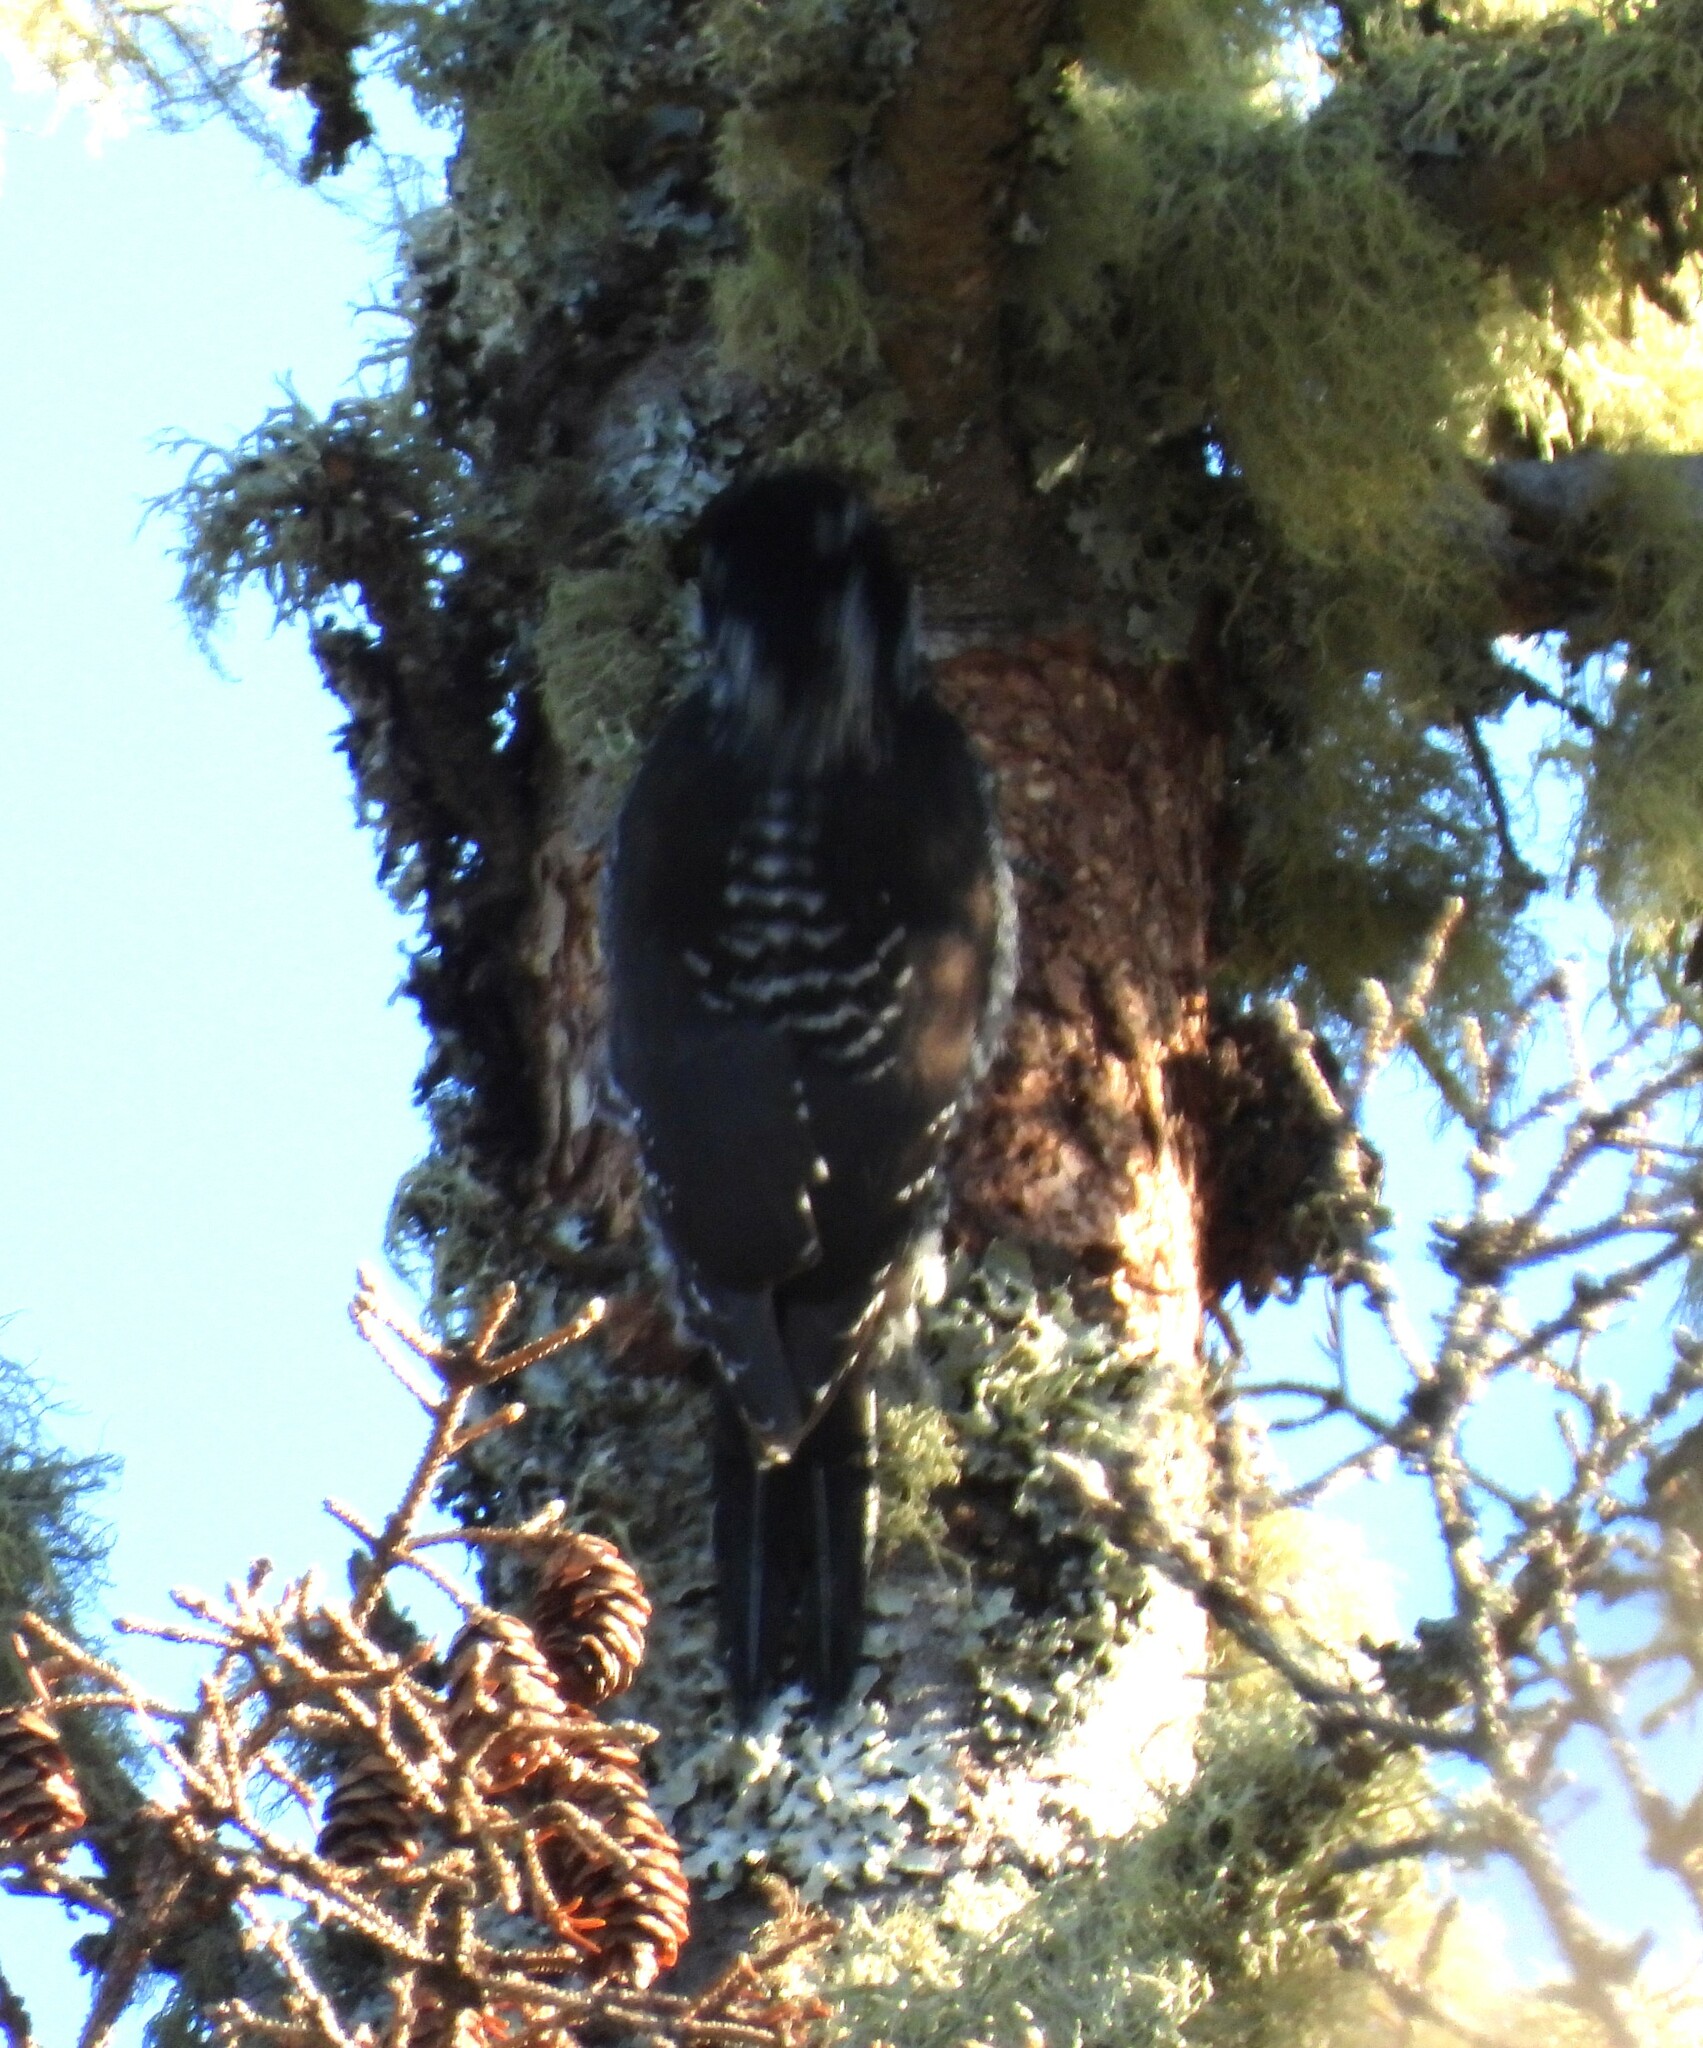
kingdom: Animalia
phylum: Chordata
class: Aves
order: Piciformes
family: Picidae
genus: Picoides
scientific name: Picoides dorsalis
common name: American three-toed woodpecker
